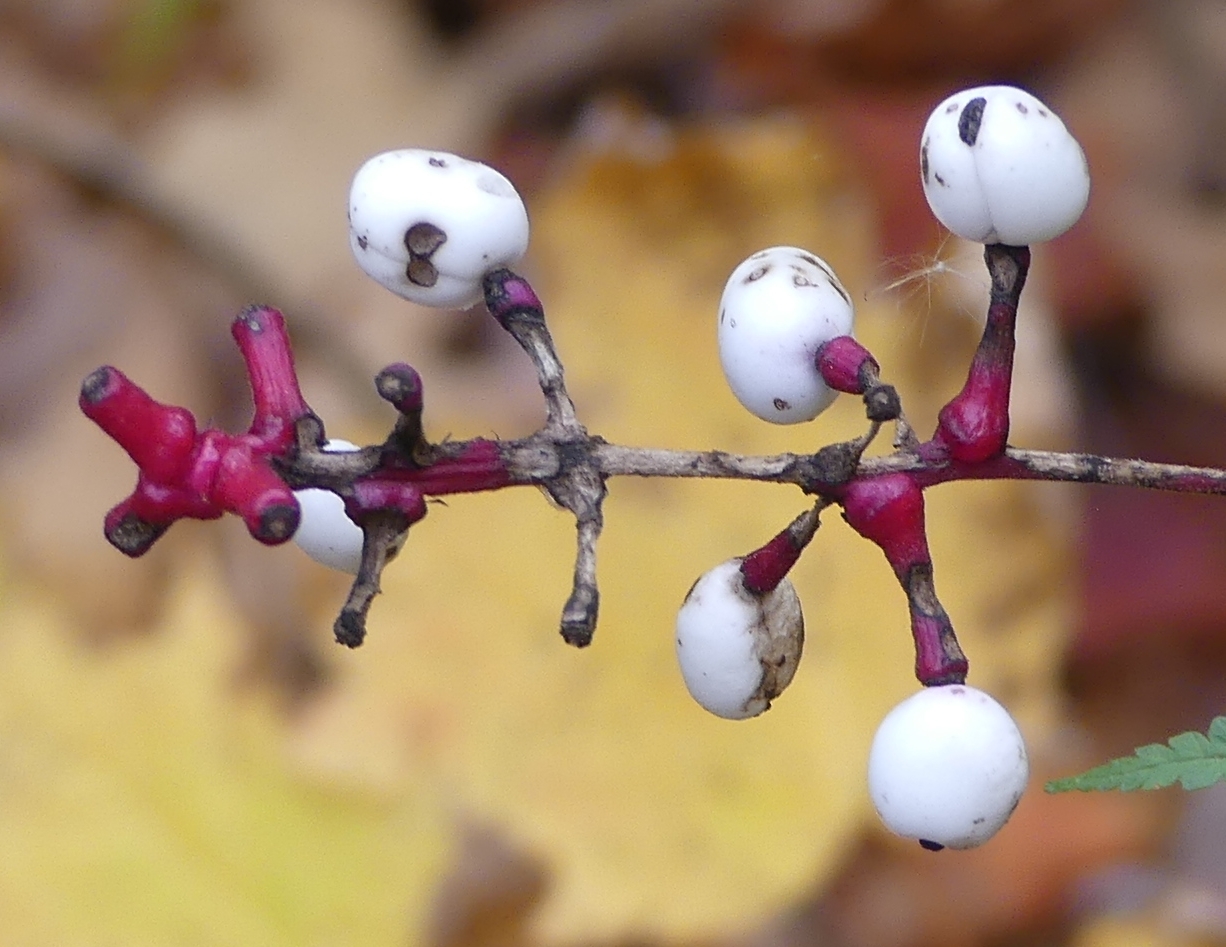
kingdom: Plantae
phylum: Tracheophyta
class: Magnoliopsida
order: Ranunculales
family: Ranunculaceae
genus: Actaea
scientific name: Actaea pachypoda
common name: Doll's-eyes
